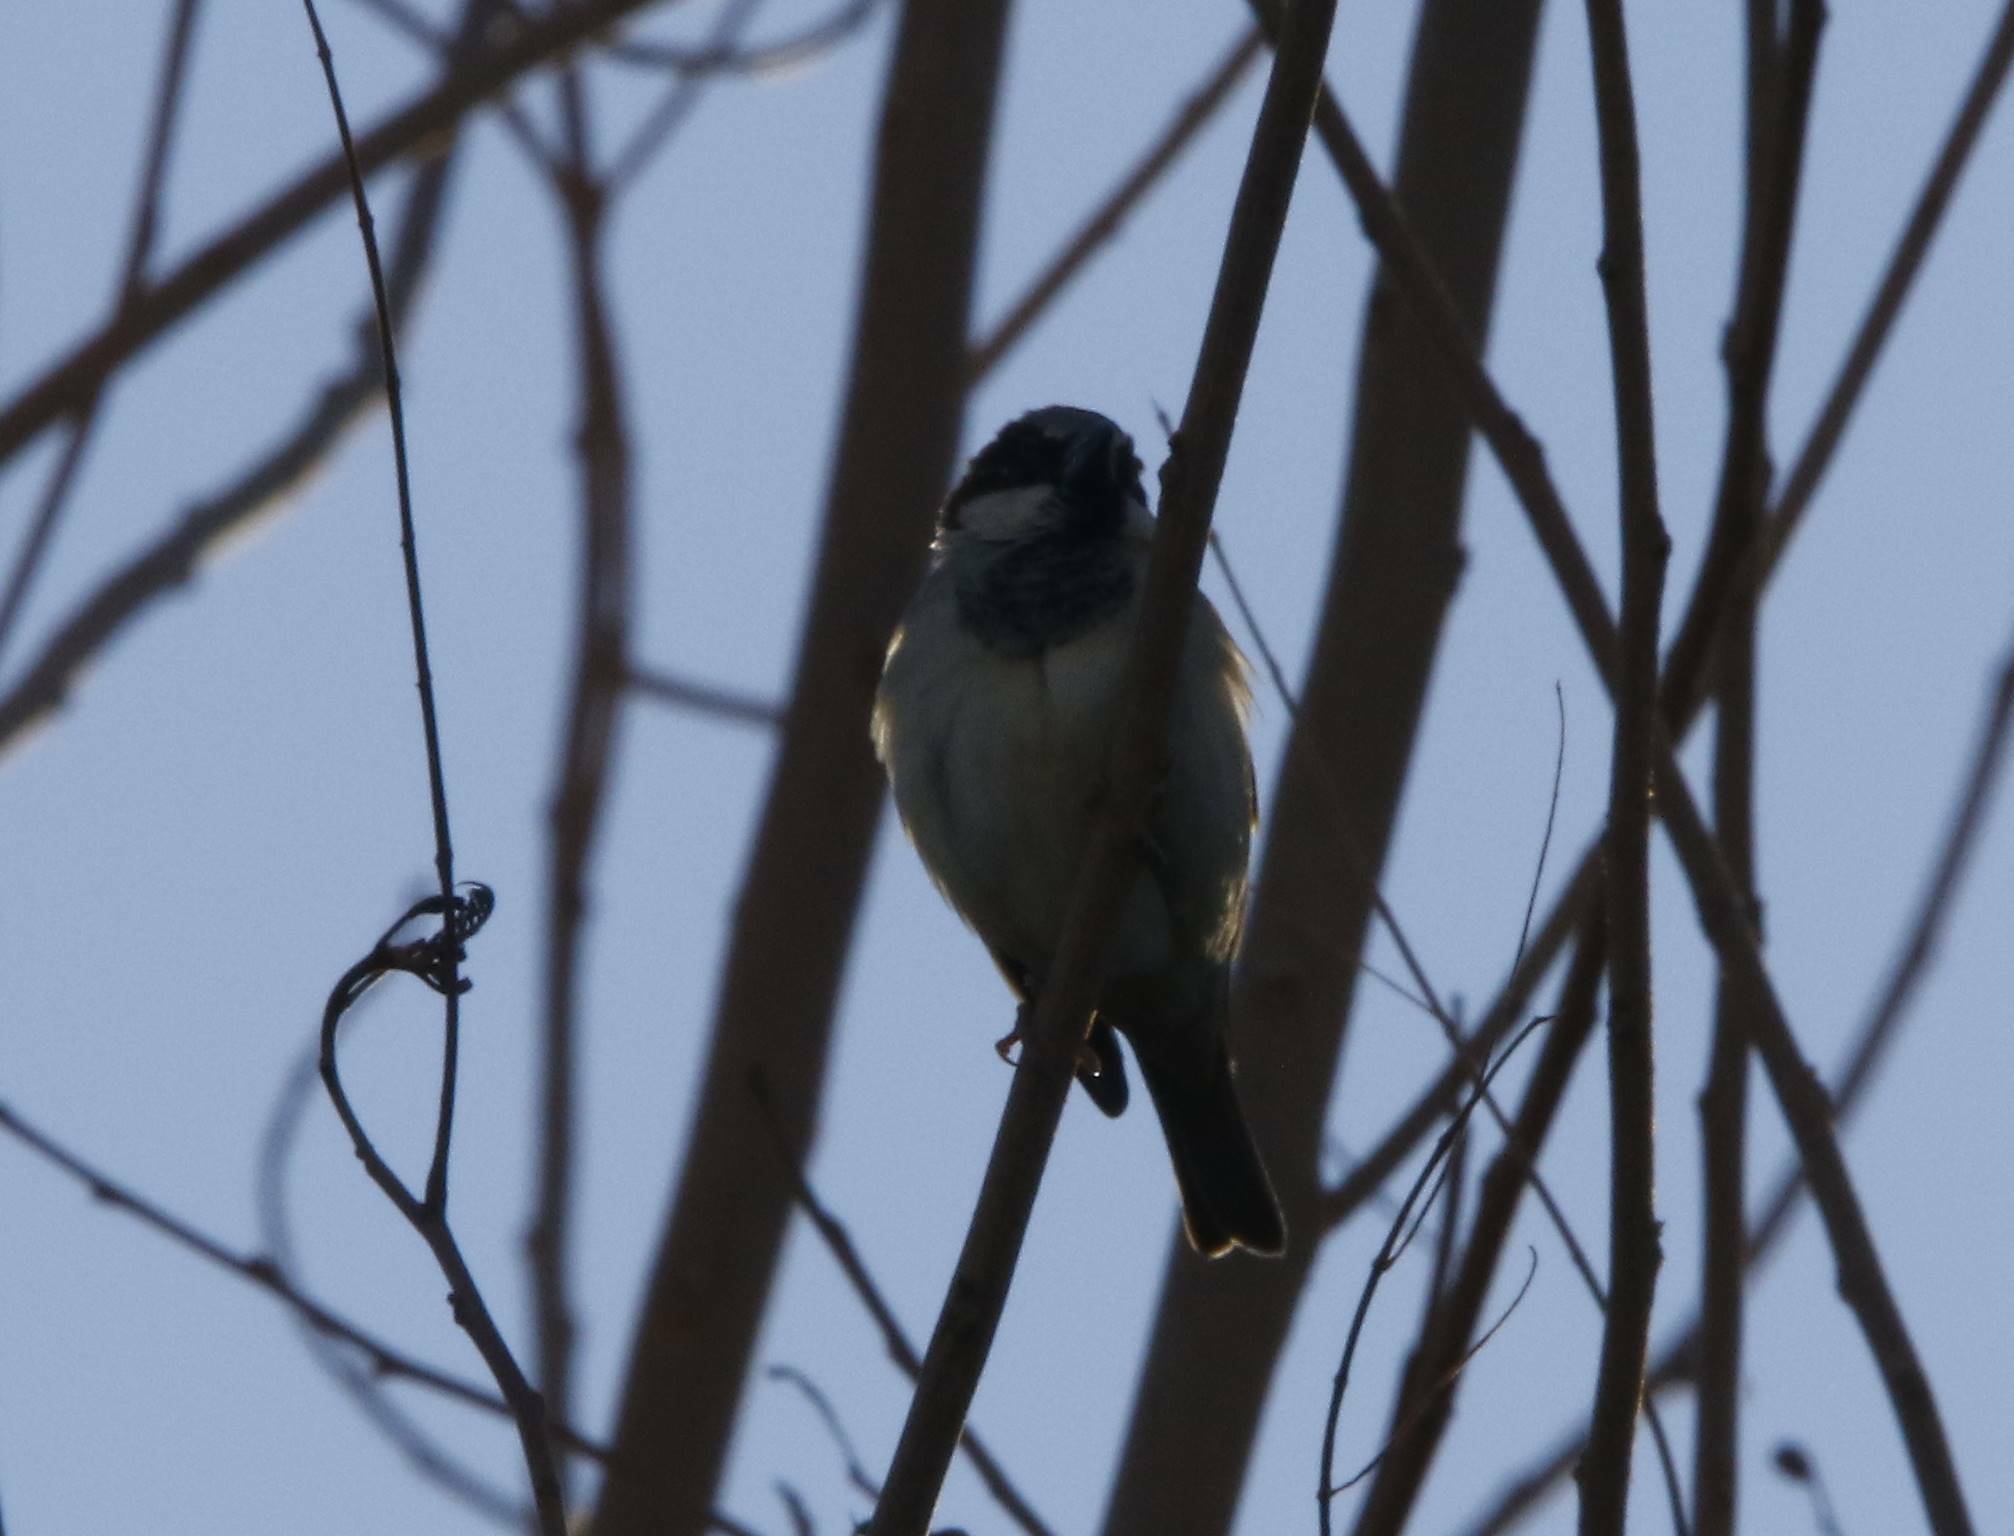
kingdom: Animalia
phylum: Chordata
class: Aves
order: Passeriformes
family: Passeridae
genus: Passer
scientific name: Passer domesticus
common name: House sparrow
